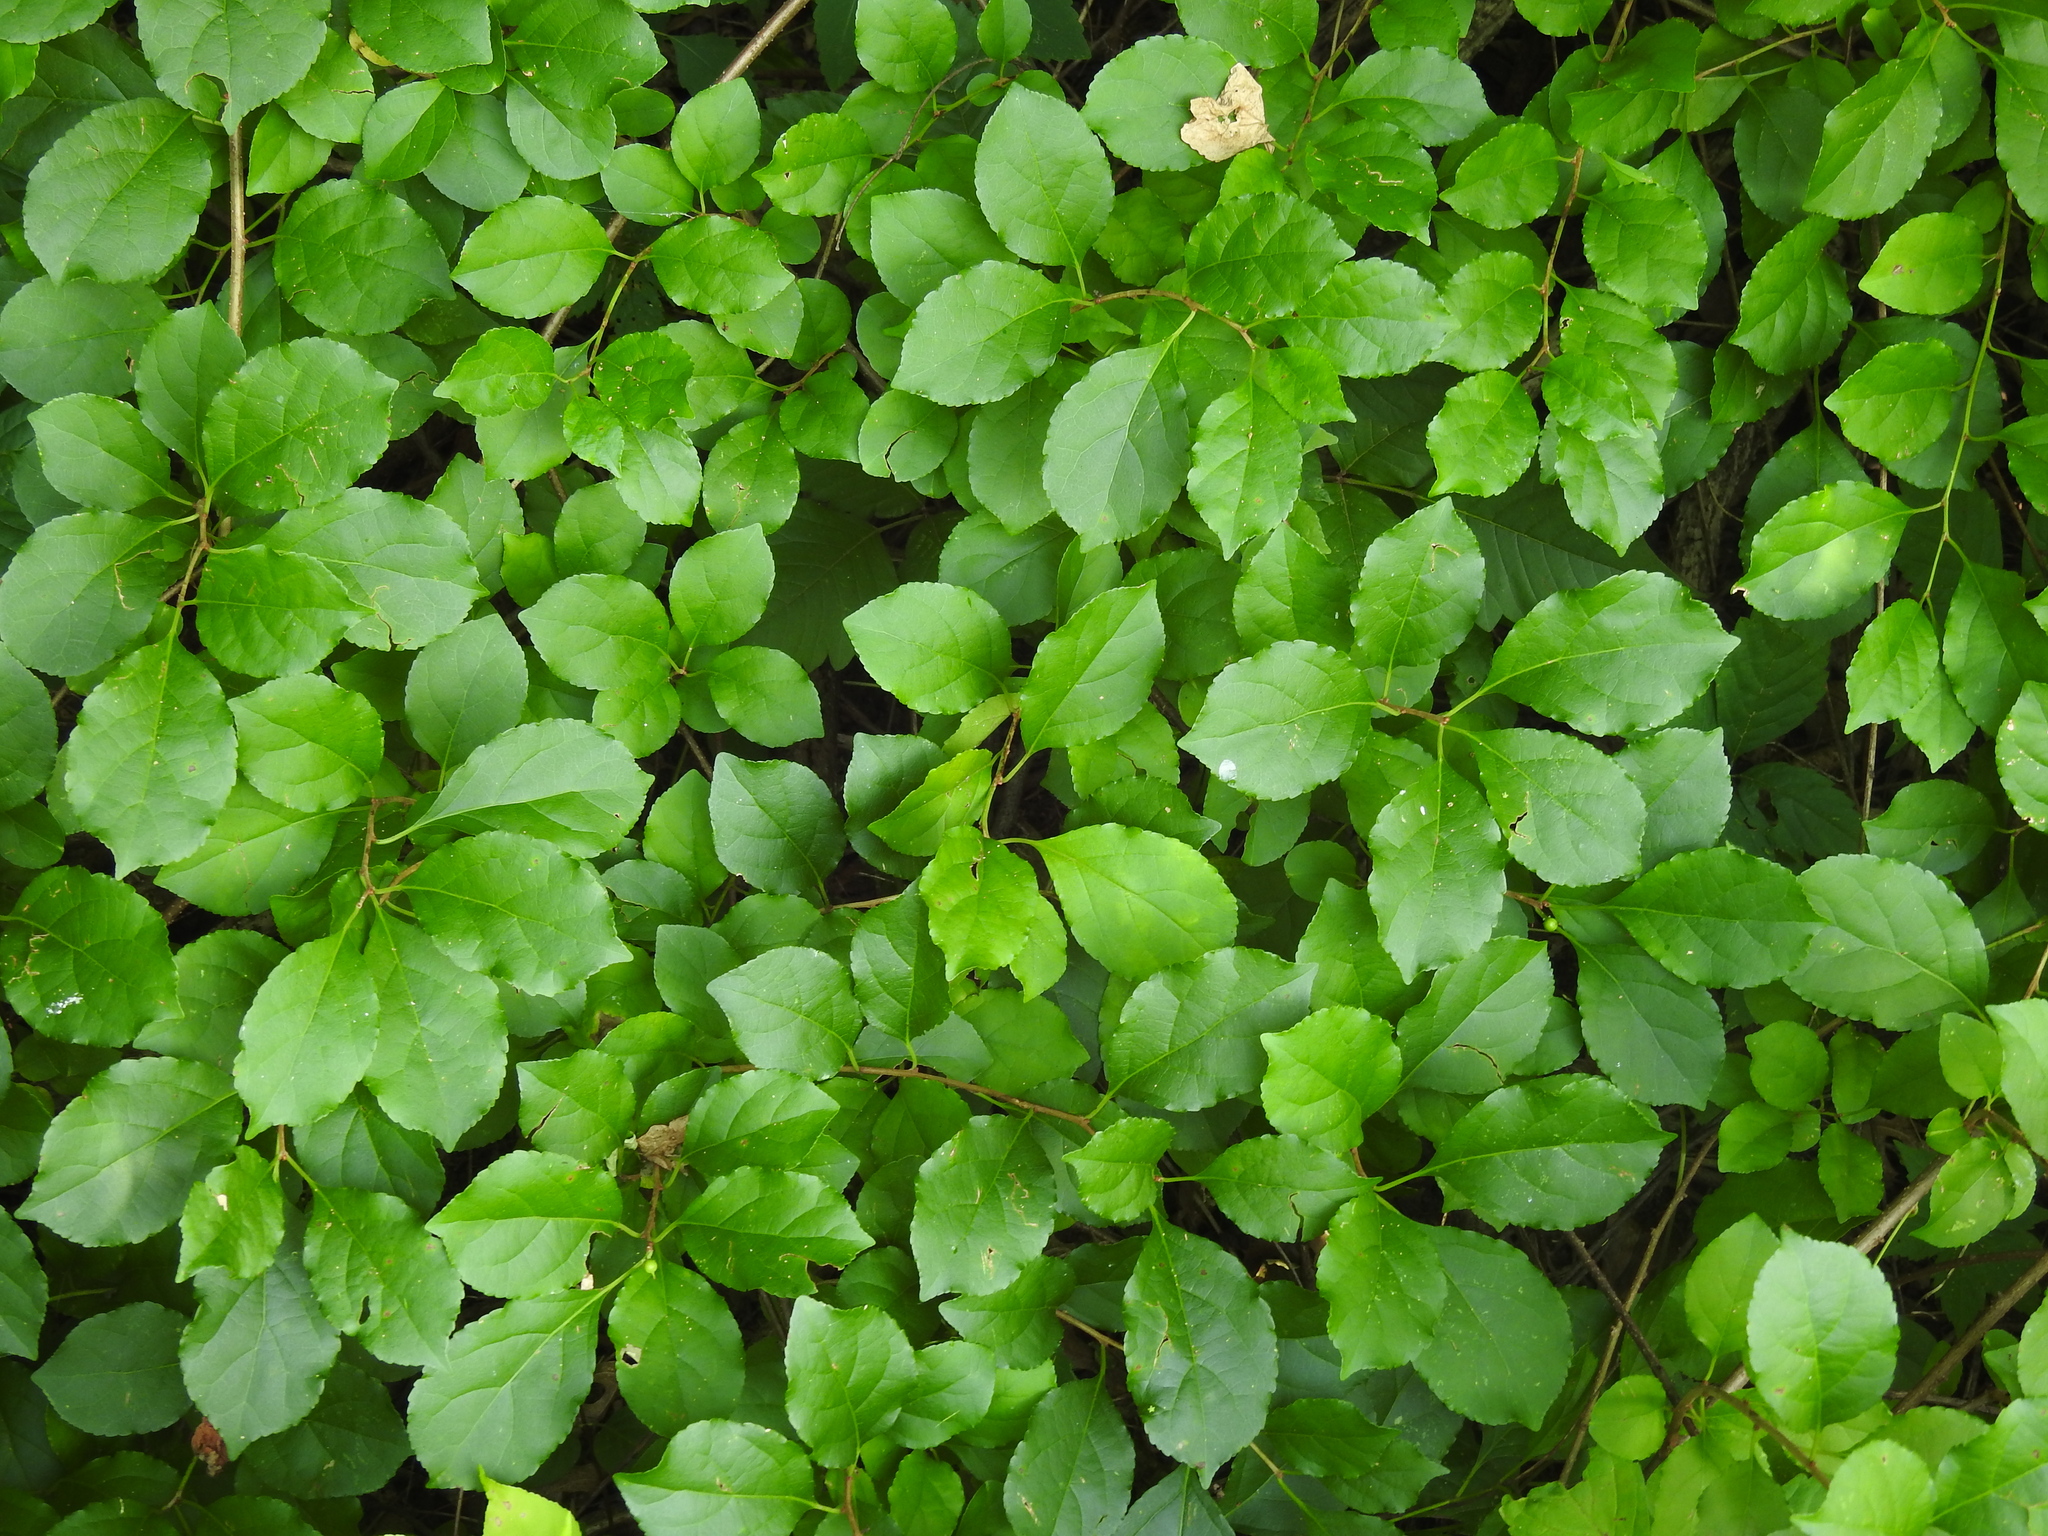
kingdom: Plantae
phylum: Tracheophyta
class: Magnoliopsida
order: Celastrales
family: Celastraceae
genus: Celastrus
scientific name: Celastrus orbiculatus
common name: Oriental bittersweet
